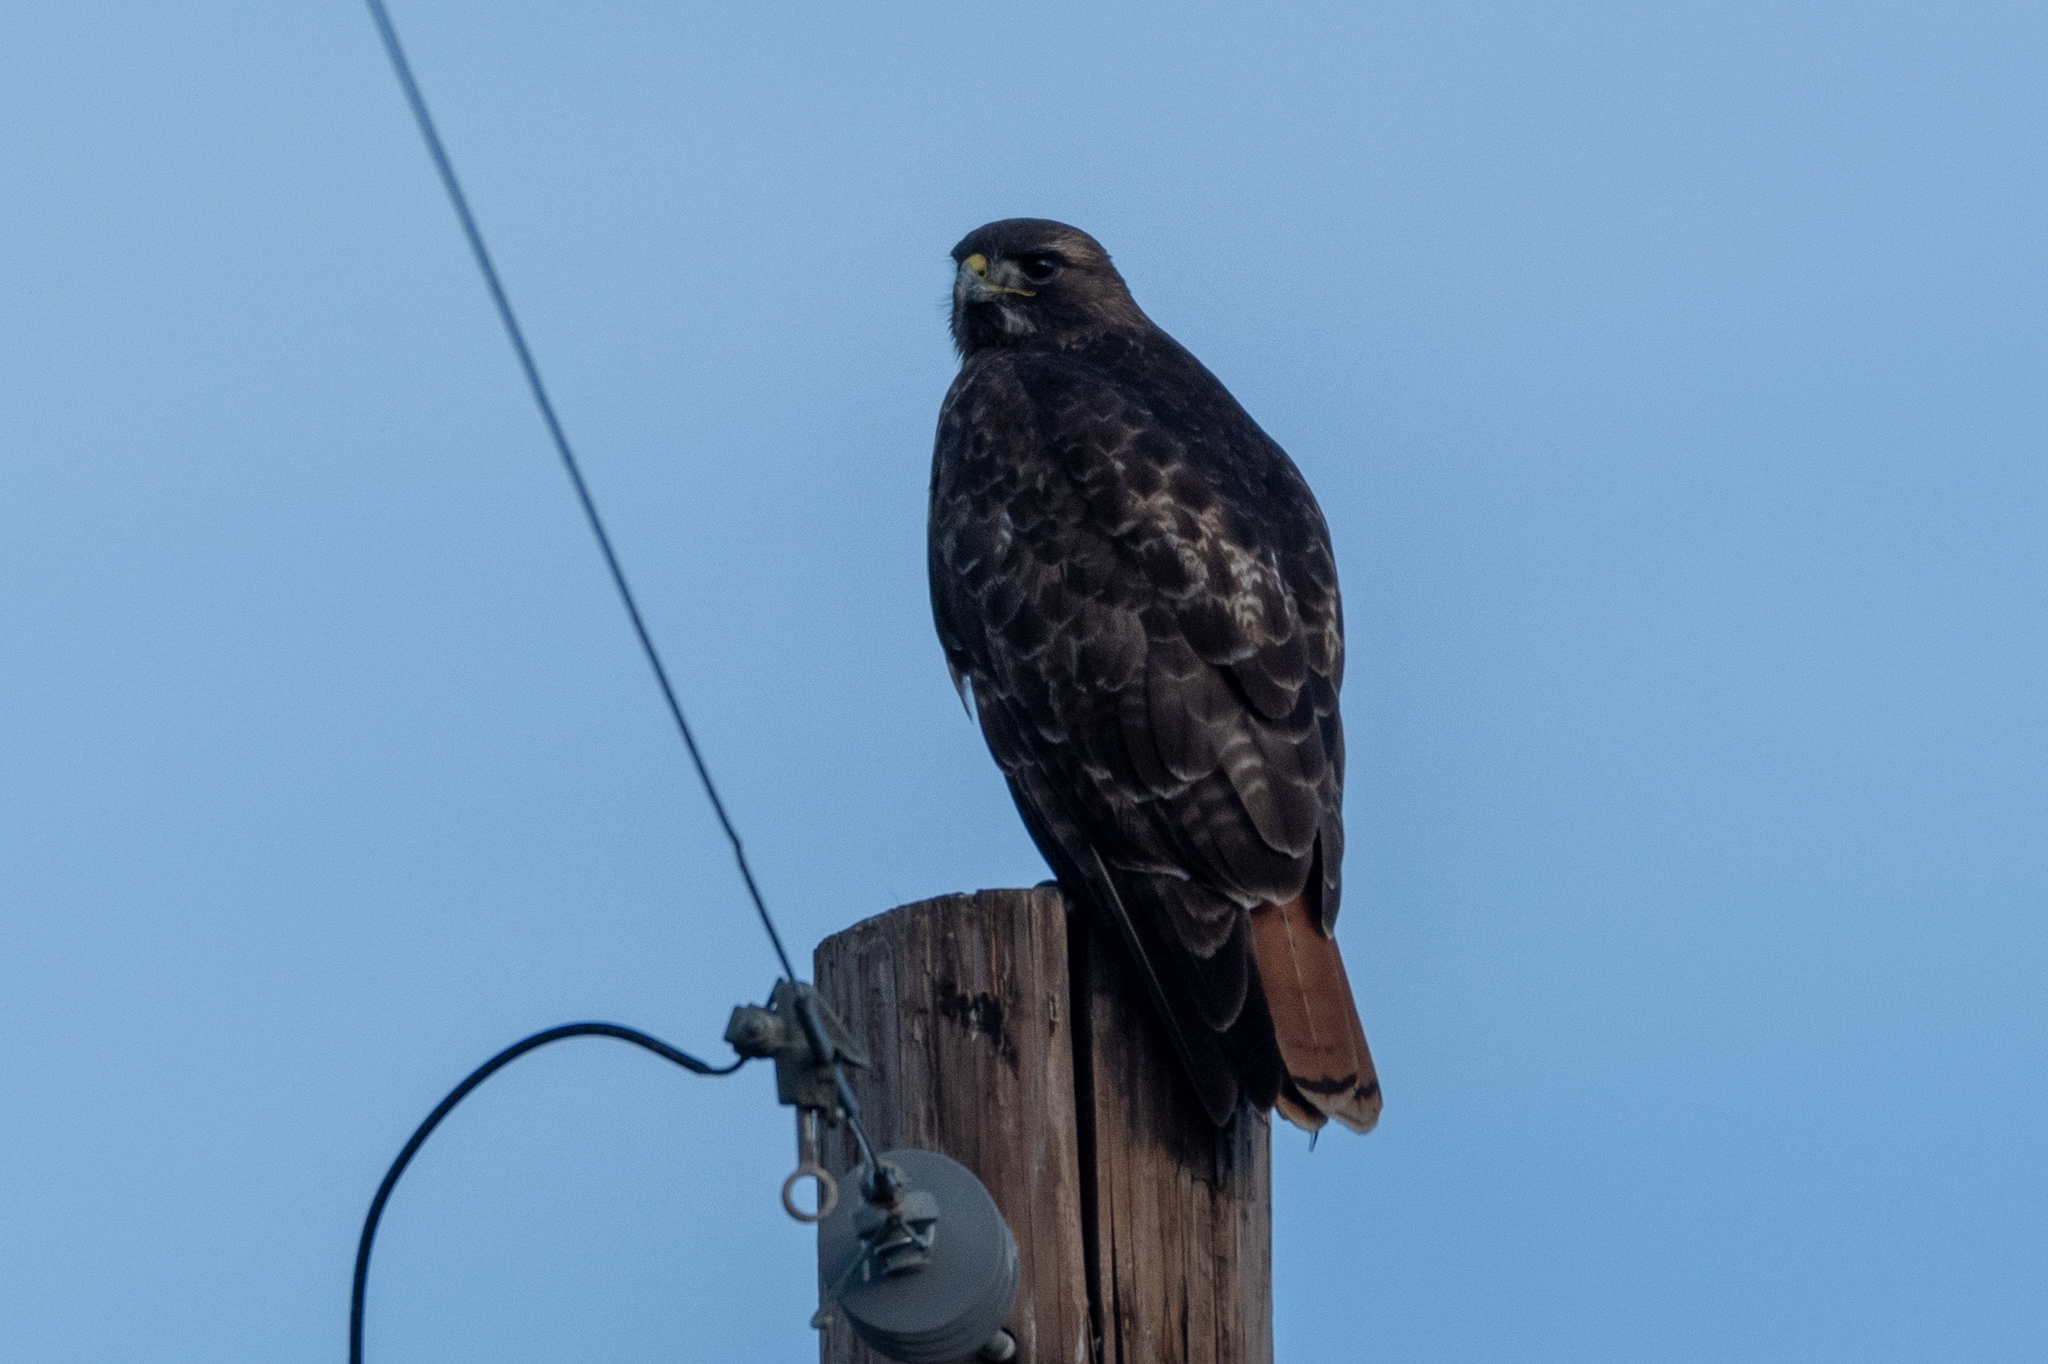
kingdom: Animalia
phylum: Chordata
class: Aves
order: Accipitriformes
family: Accipitridae
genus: Buteo
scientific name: Buteo jamaicensis
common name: Red-tailed hawk
